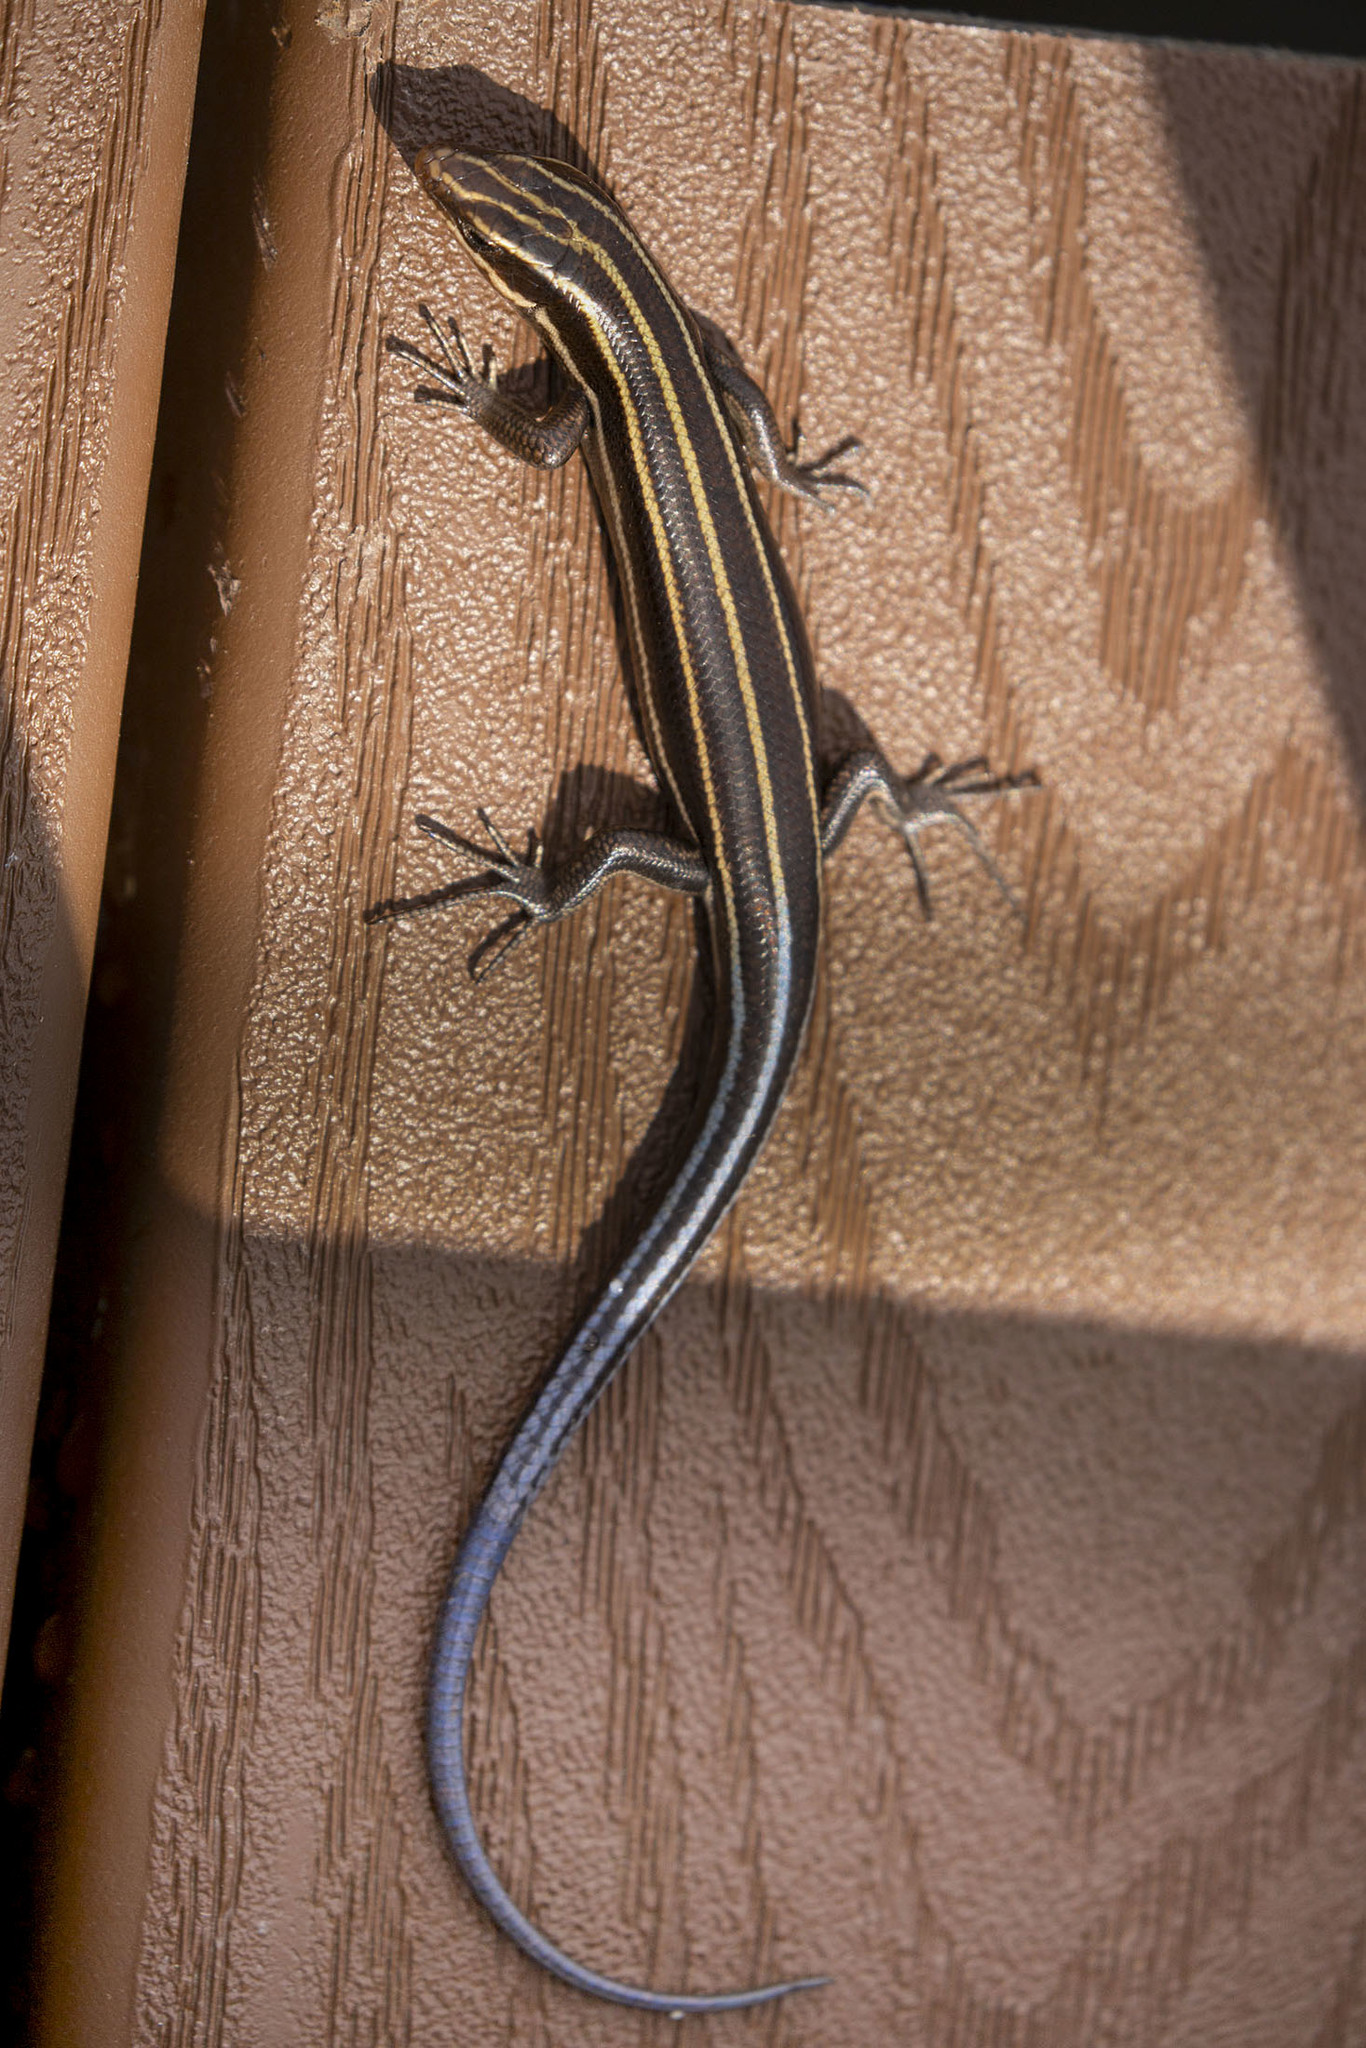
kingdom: Animalia
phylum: Chordata
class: Squamata
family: Scincidae
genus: Plestiodon
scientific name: Plestiodon fasciatus
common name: Five-lined skink
